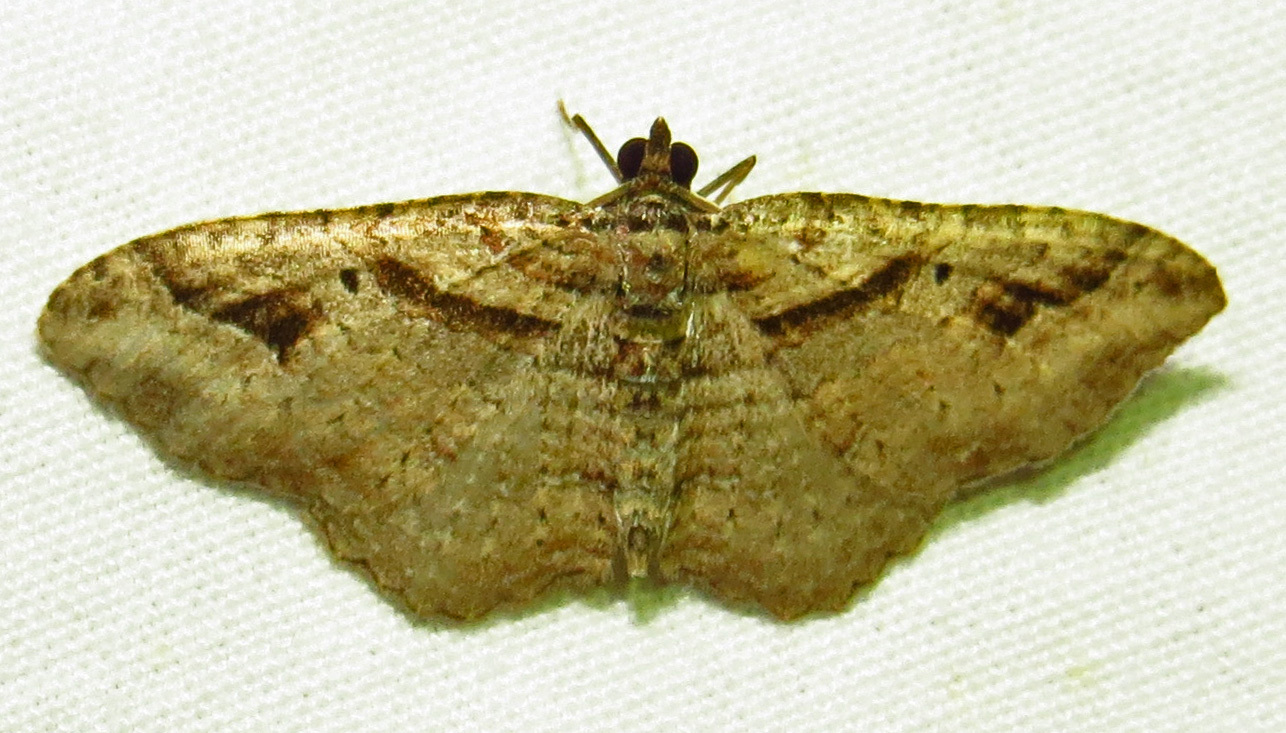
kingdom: Animalia
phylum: Arthropoda
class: Insecta
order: Lepidoptera
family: Geometridae
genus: Costaconvexa
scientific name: Costaconvexa centrostrigaria
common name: Bent-line carpet
